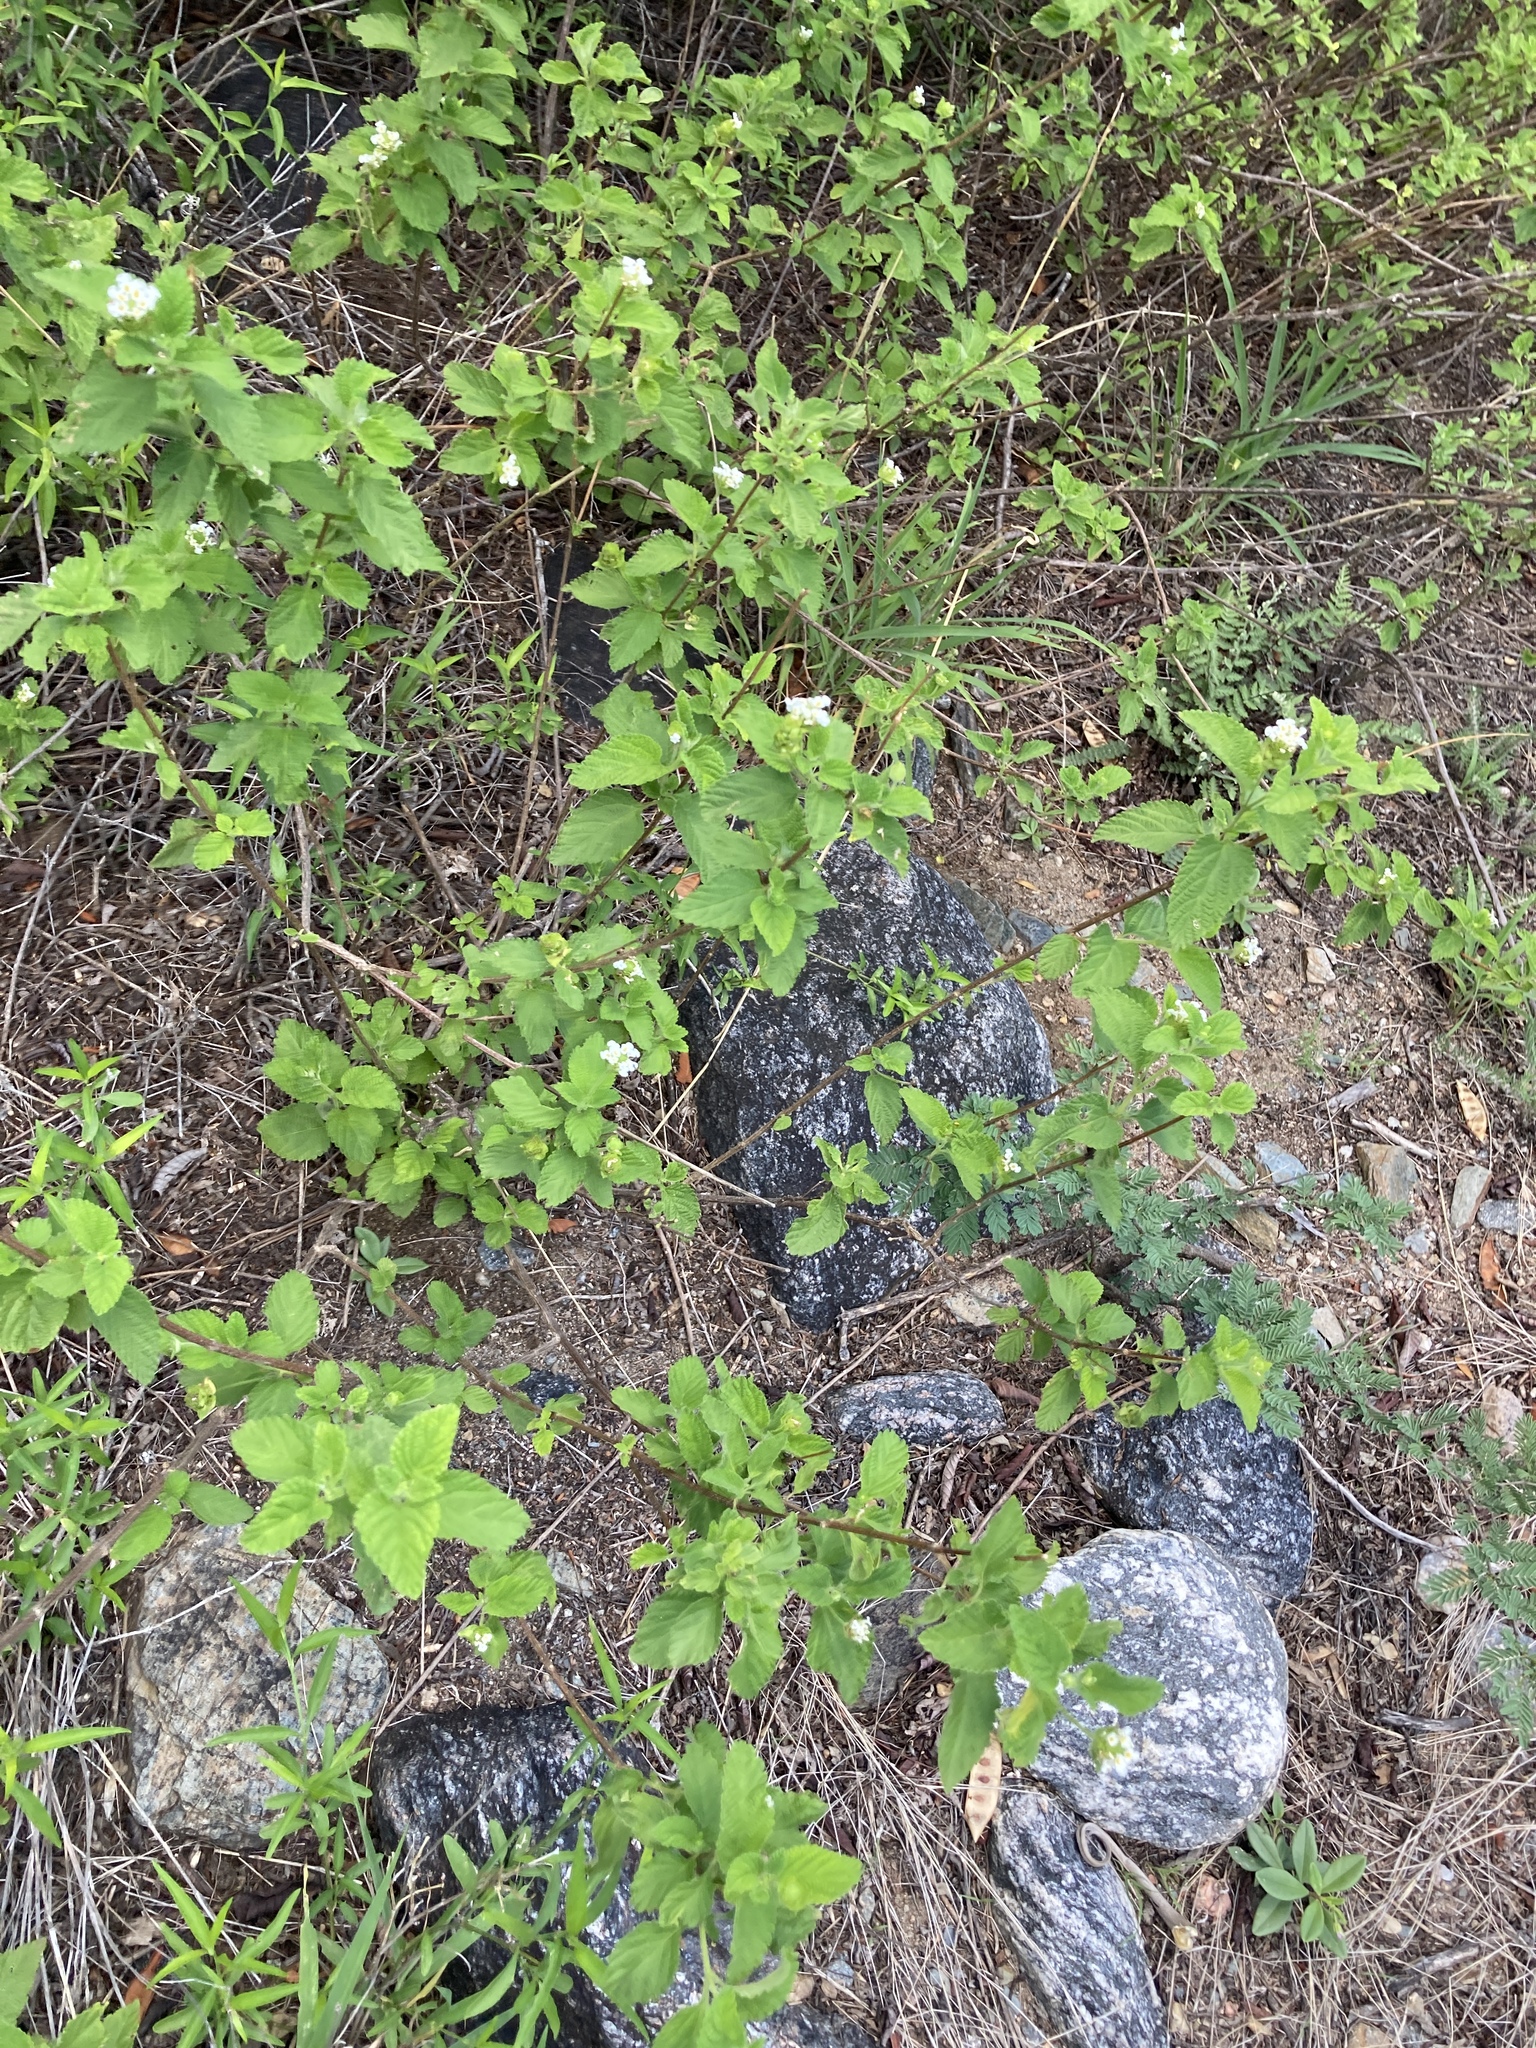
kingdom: Plantae
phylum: Tracheophyta
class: Magnoliopsida
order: Lamiales
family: Verbenaceae
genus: Lantana
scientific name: Lantana grisebachii
